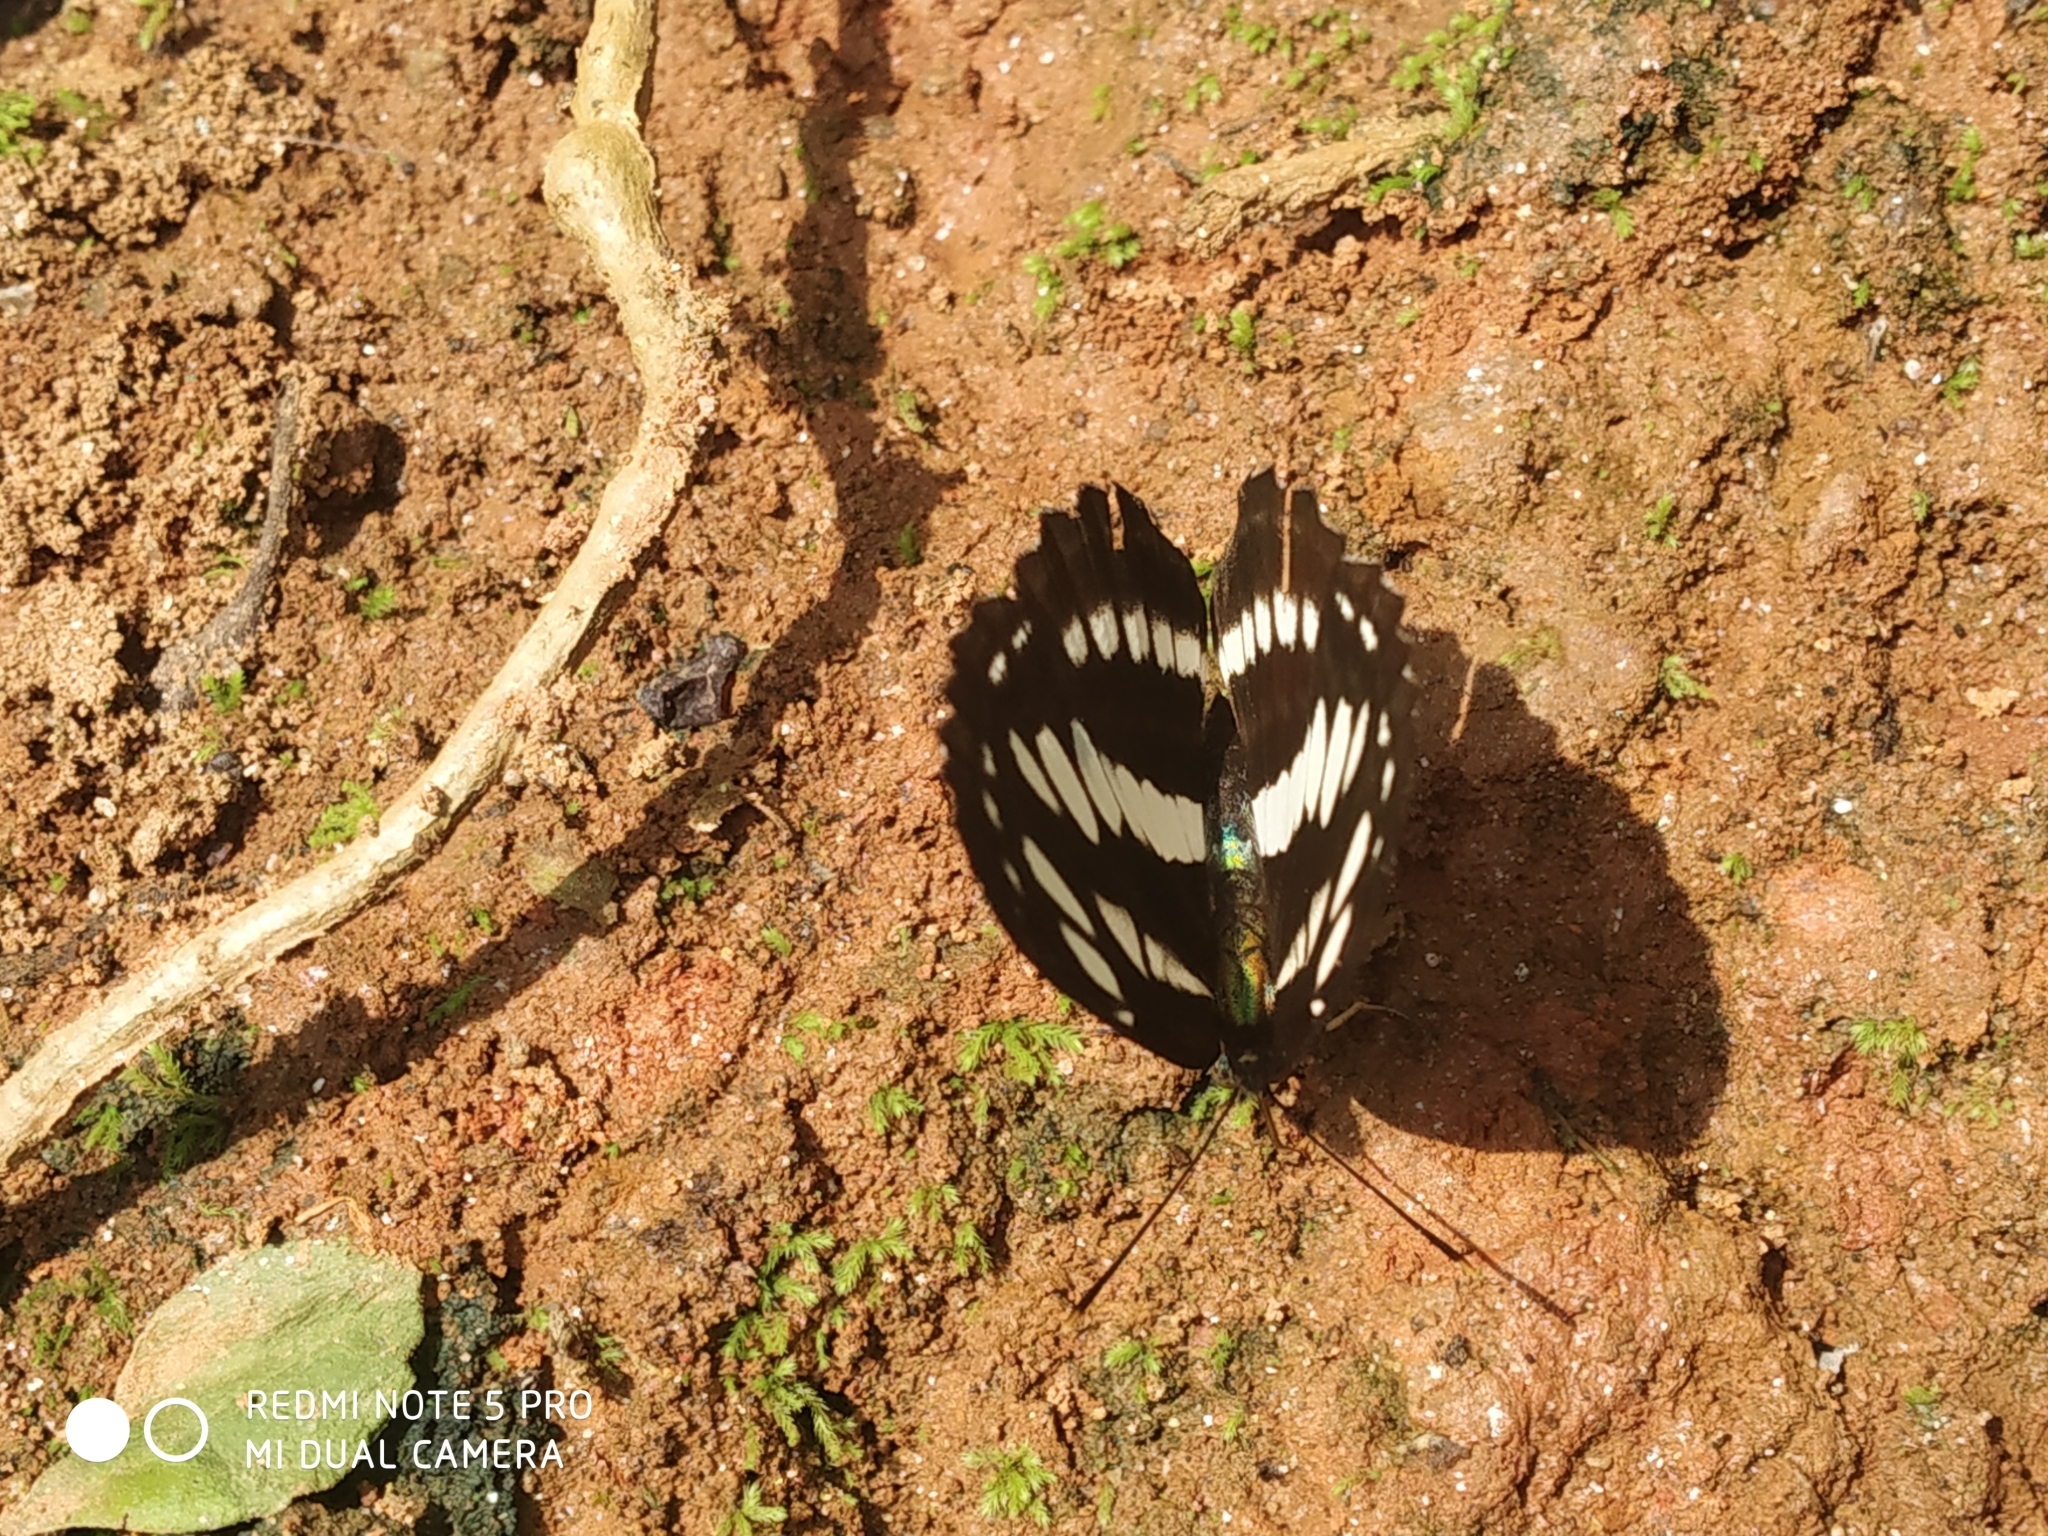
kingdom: Animalia
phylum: Arthropoda
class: Insecta
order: Lepidoptera
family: Nymphalidae
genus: Neptis
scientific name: Neptis hylas
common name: Common sailer
